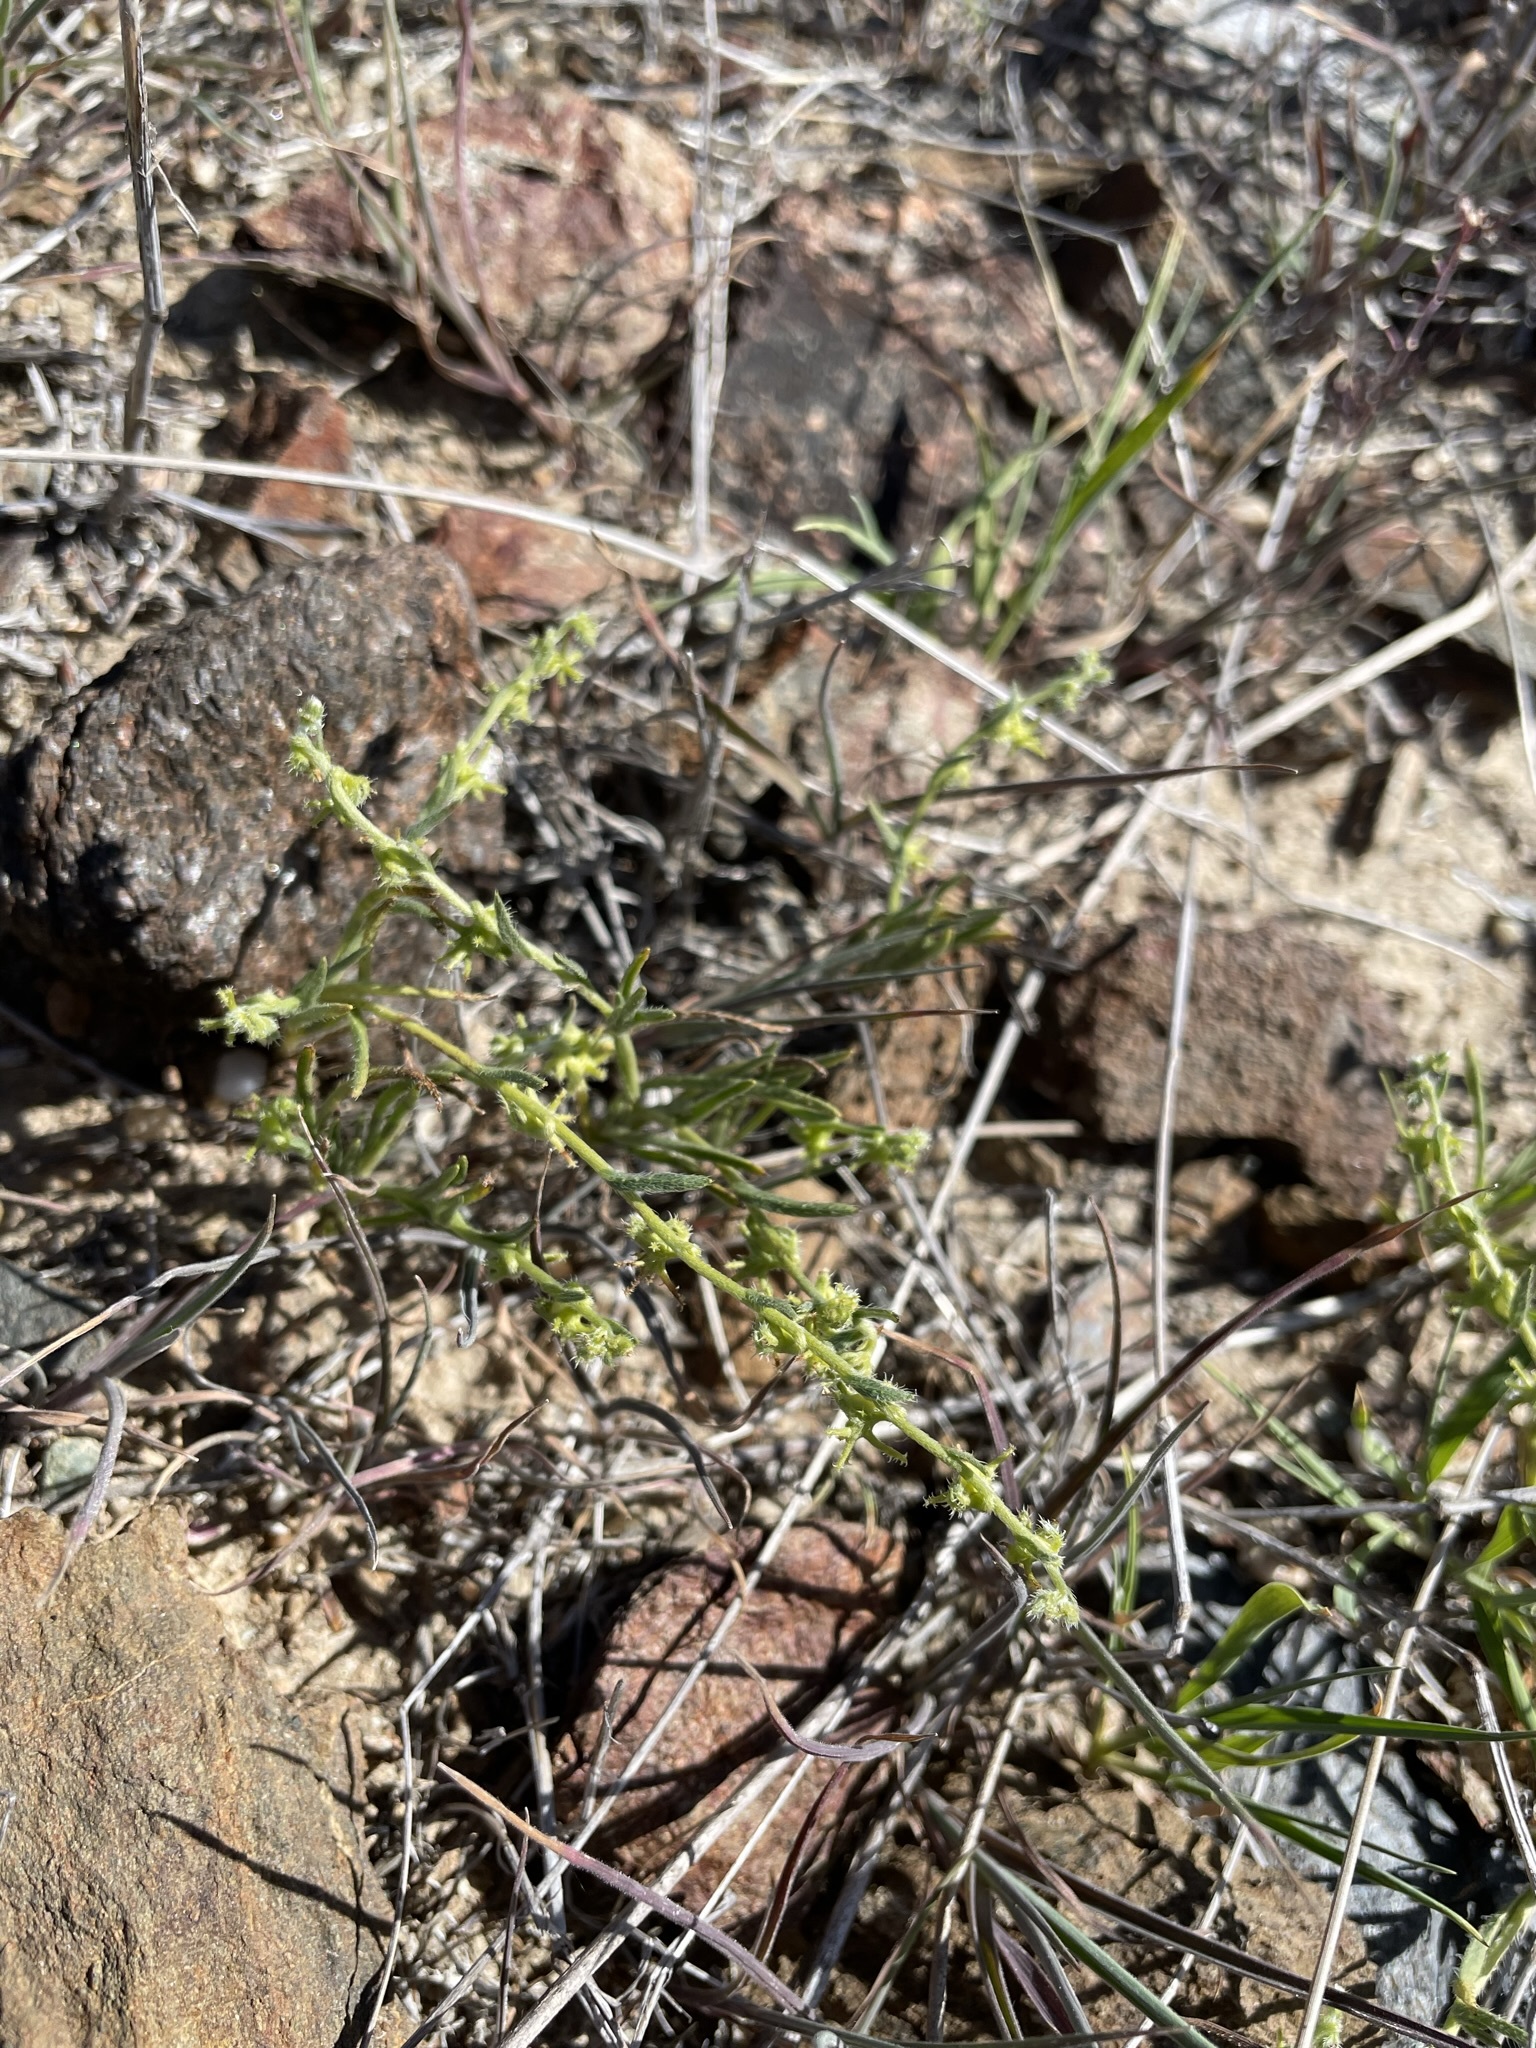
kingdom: Plantae
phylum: Tracheophyta
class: Magnoliopsida
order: Boraginales
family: Boraginaceae
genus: Harpagonella
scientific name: Harpagonella palmeri
